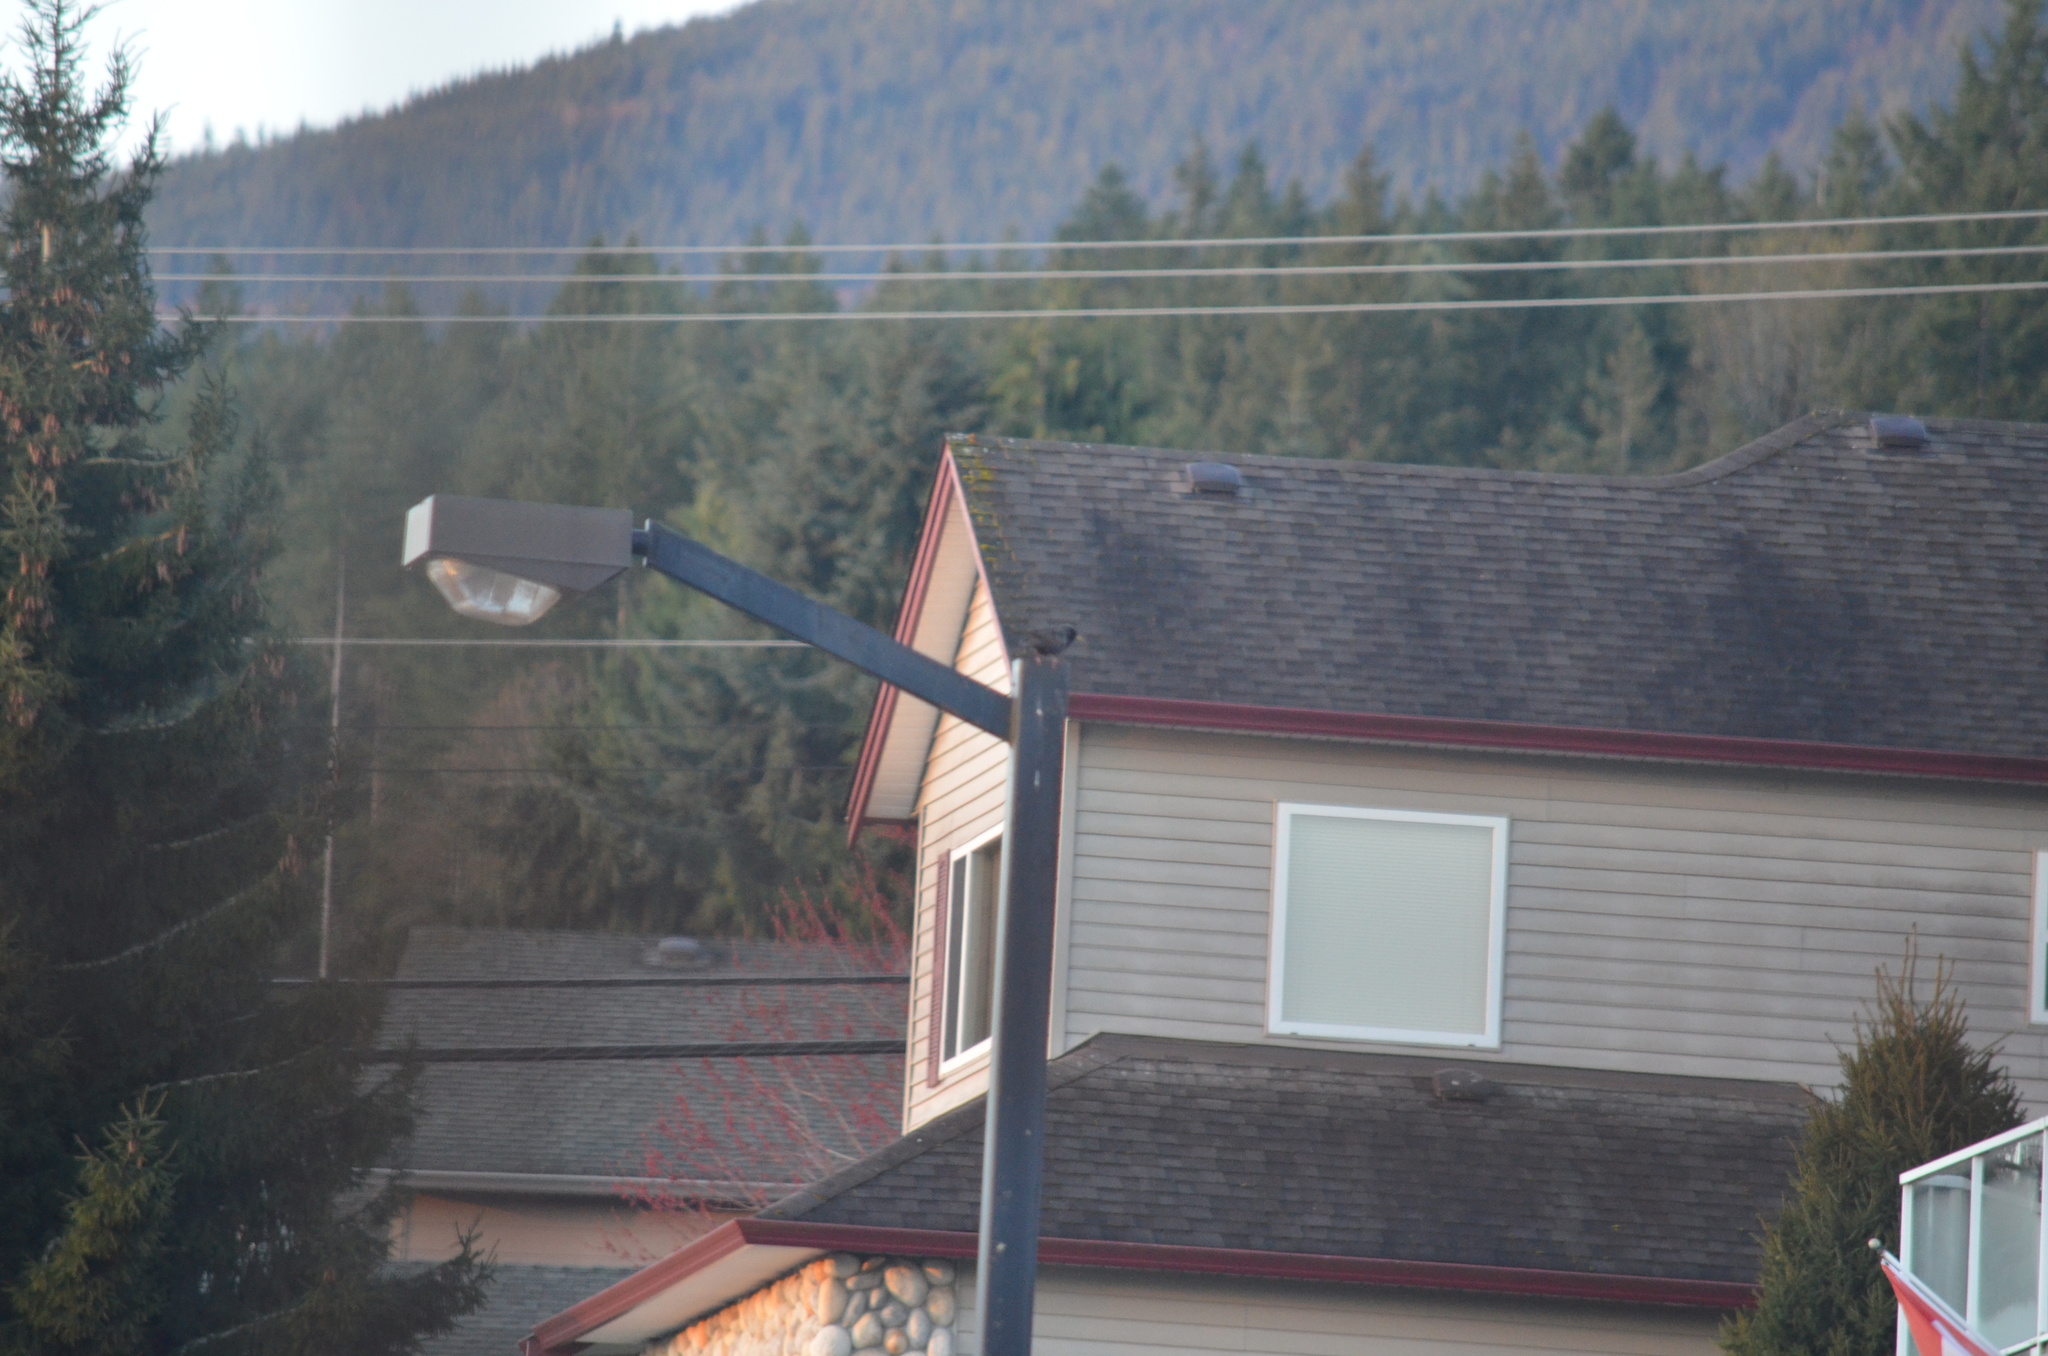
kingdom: Animalia
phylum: Chordata
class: Aves
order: Passeriformes
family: Sturnidae
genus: Sturnus
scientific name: Sturnus vulgaris
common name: Common starling
